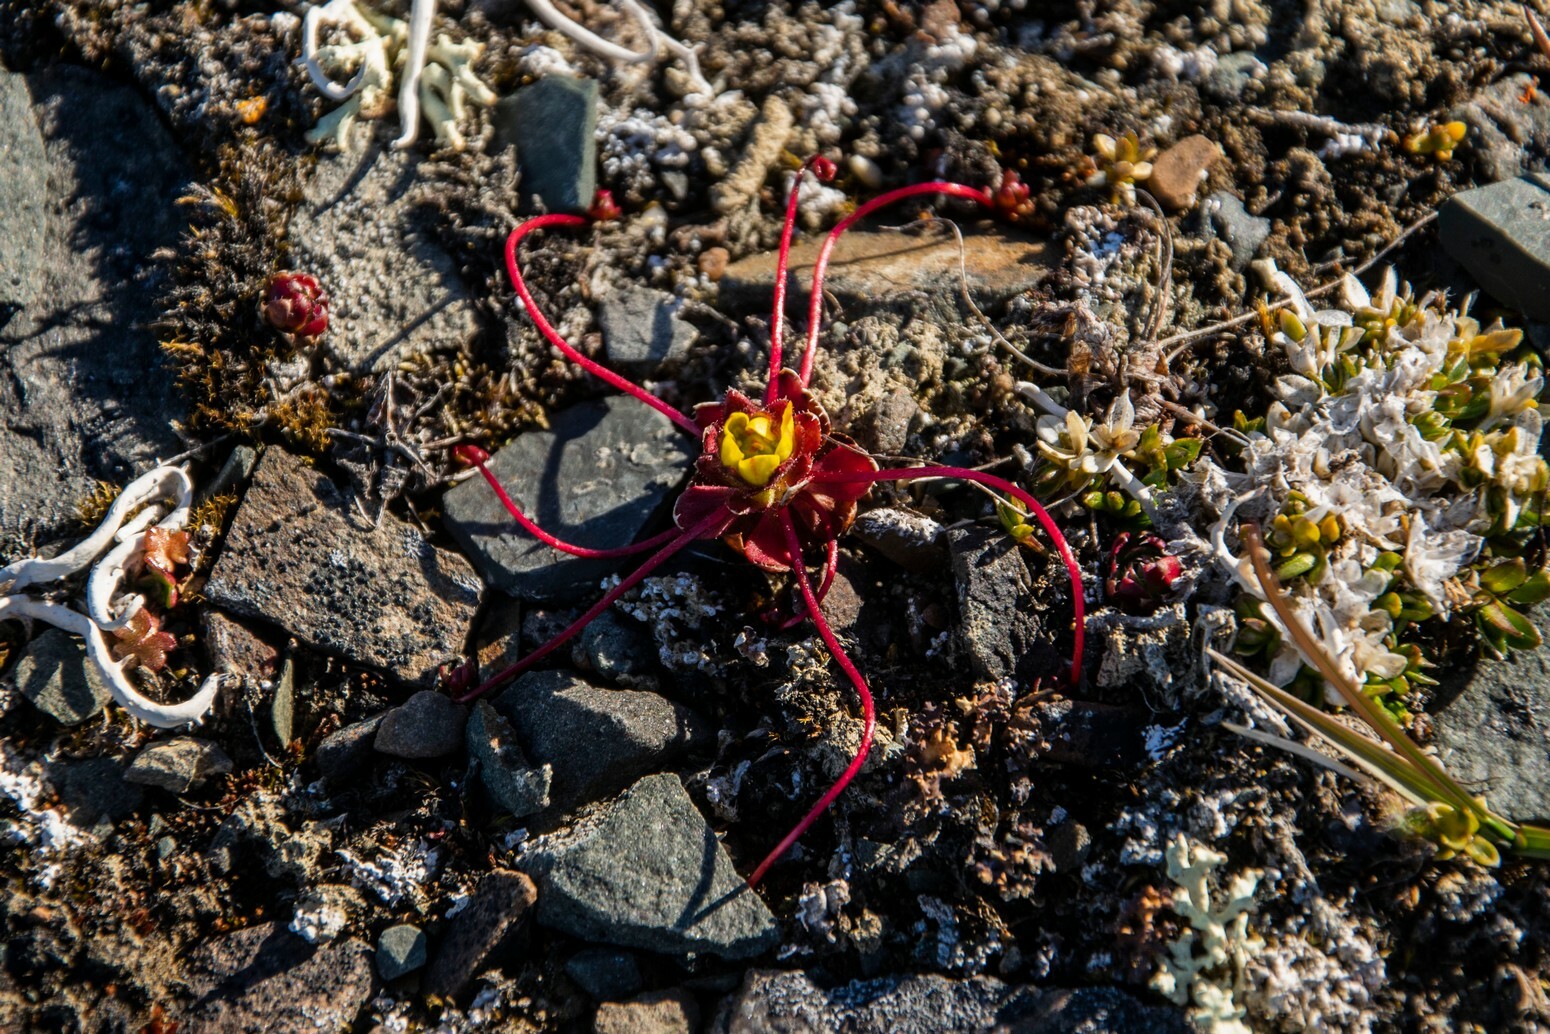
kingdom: Plantae
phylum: Tracheophyta
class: Magnoliopsida
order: Saxifragales
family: Saxifragaceae
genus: Saxifraga
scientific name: Saxifraga platysepala
